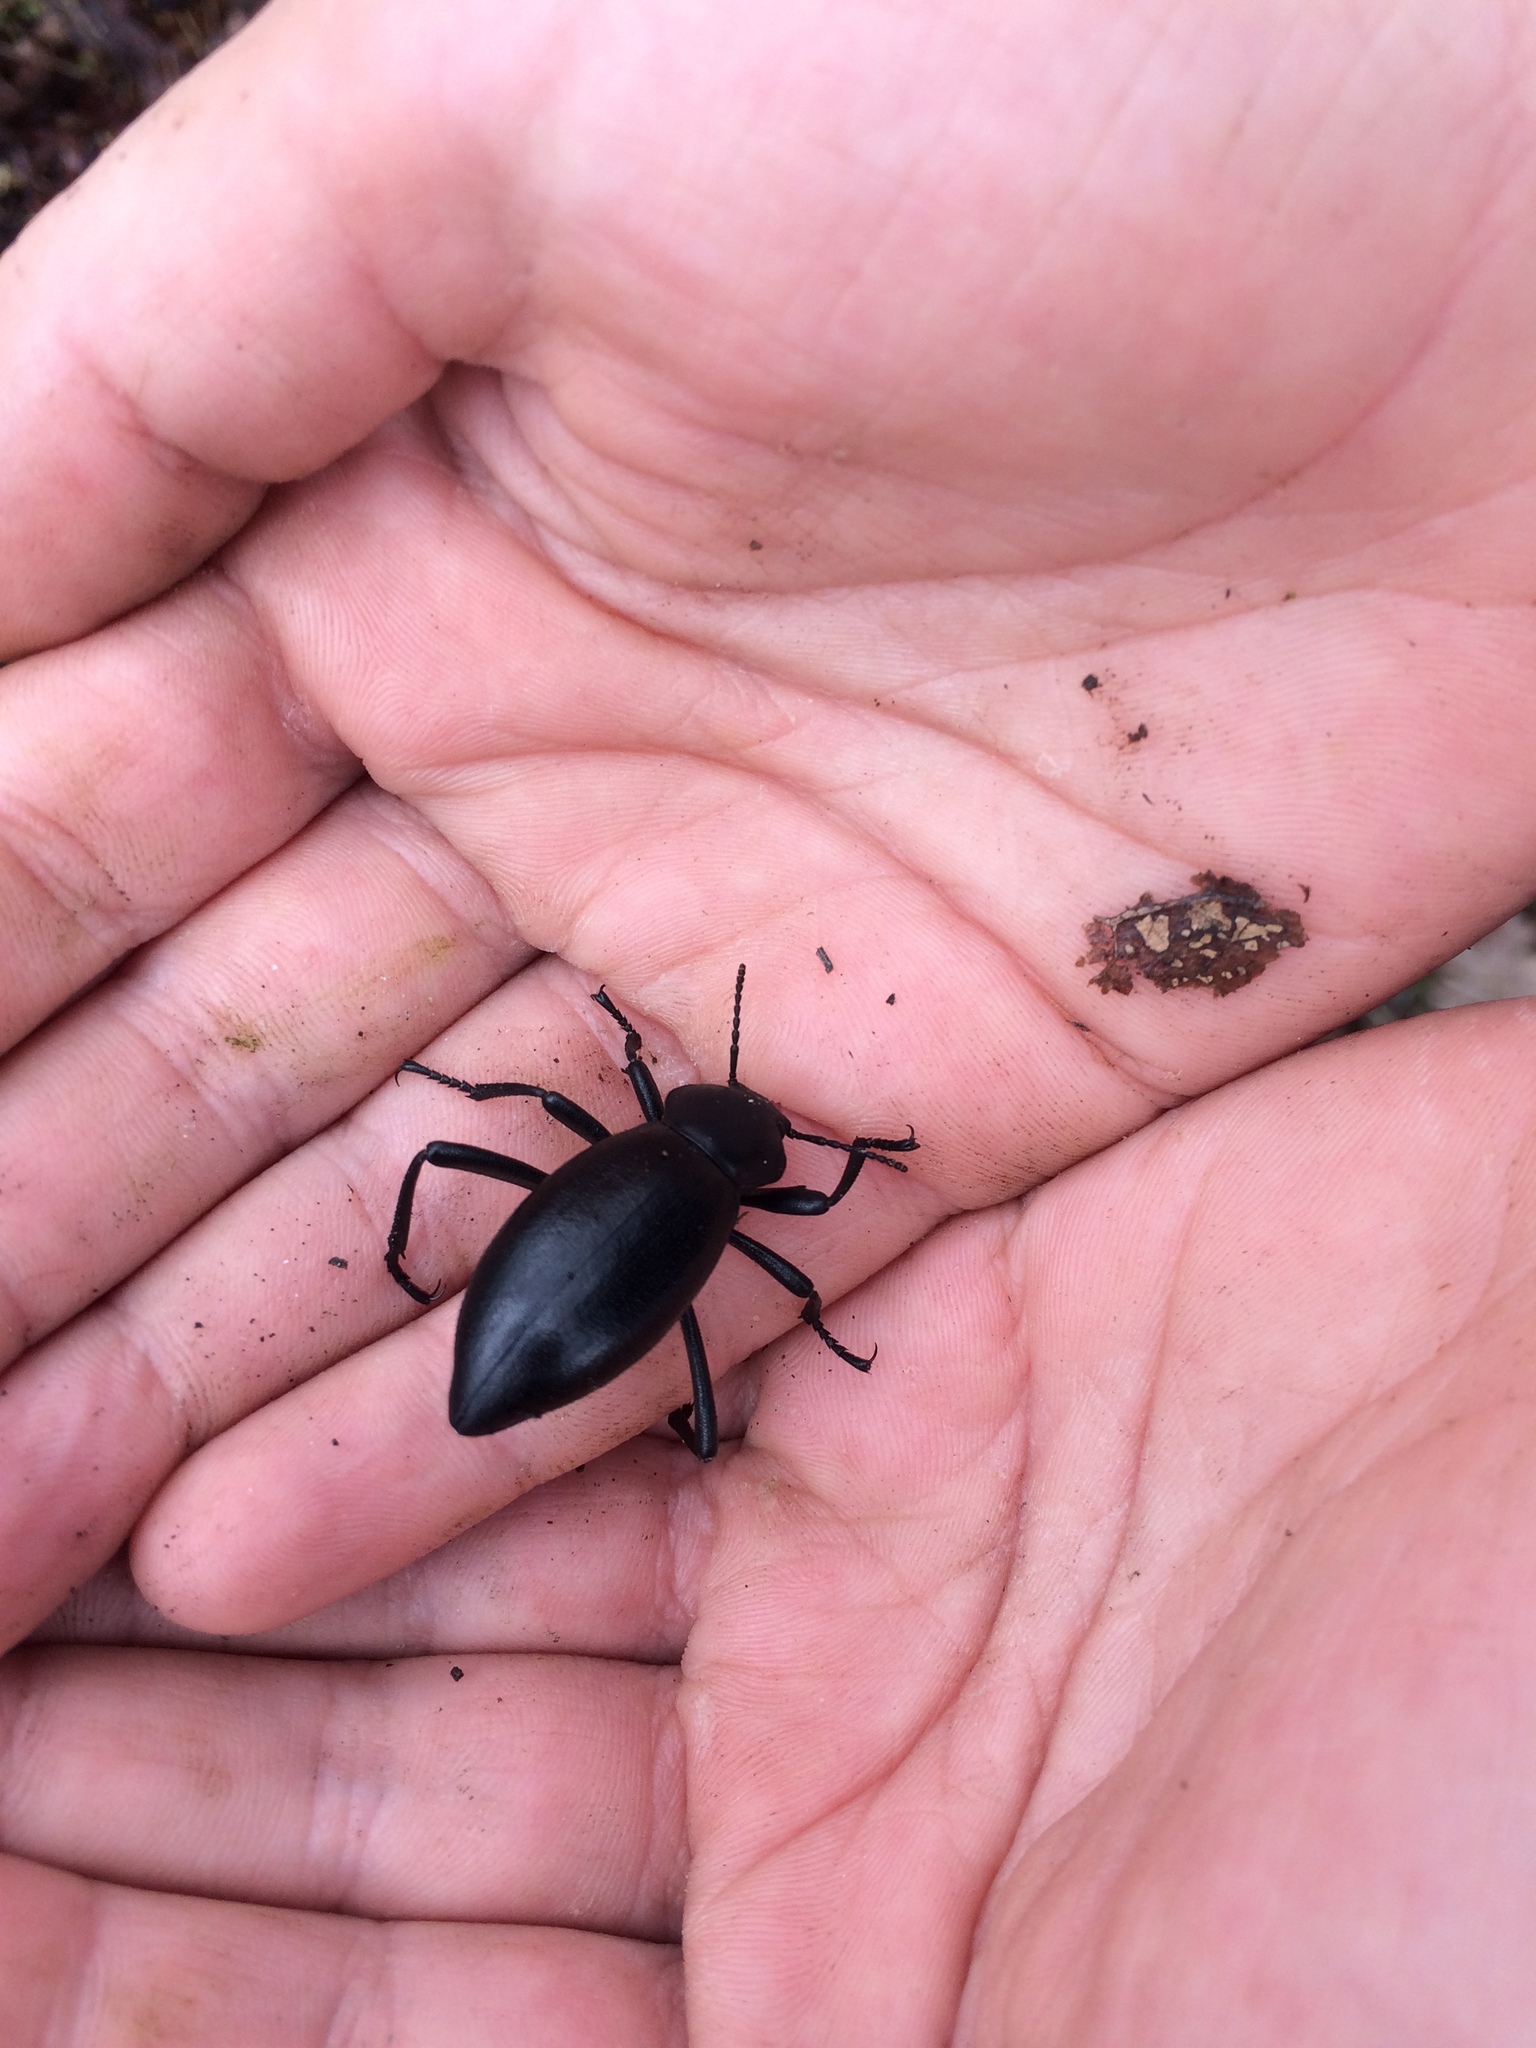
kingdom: Animalia
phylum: Arthropoda
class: Insecta
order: Coleoptera
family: Tenebrionidae
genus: Eleodes
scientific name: Eleodes dentipes
